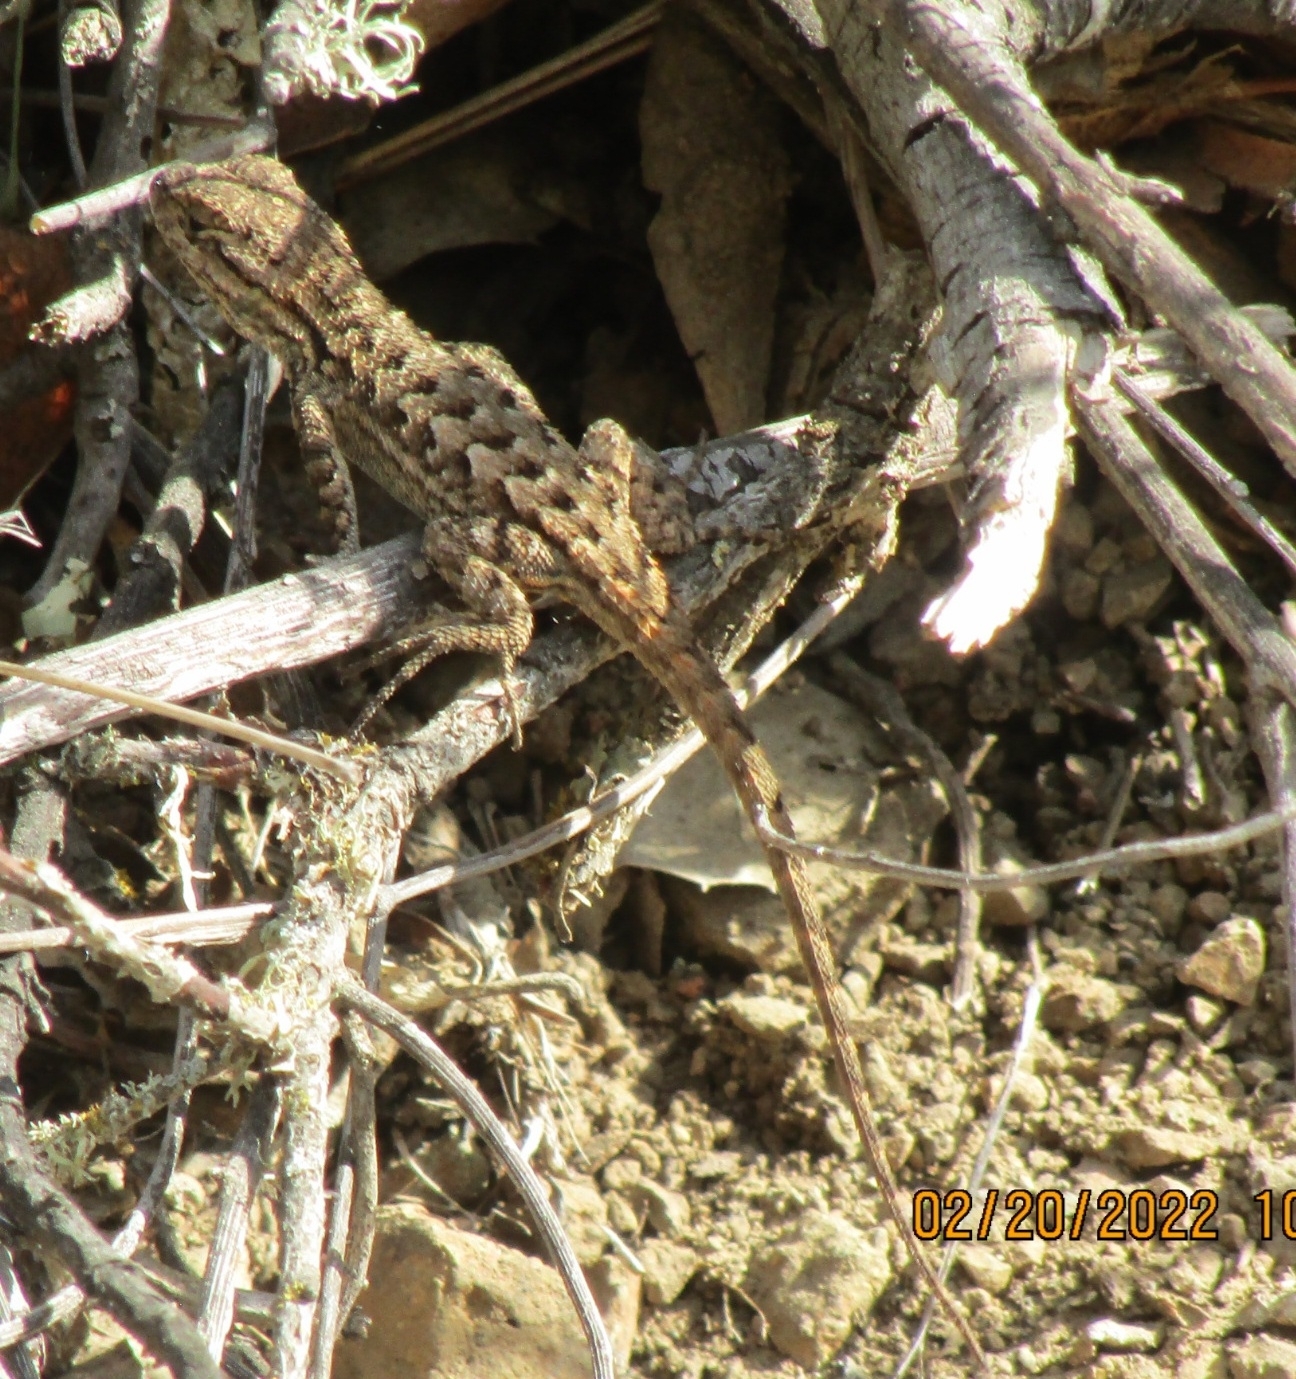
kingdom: Animalia
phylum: Chordata
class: Squamata
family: Phrynosomatidae
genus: Sceloporus
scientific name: Sceloporus occidentalis
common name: Western fence lizard
